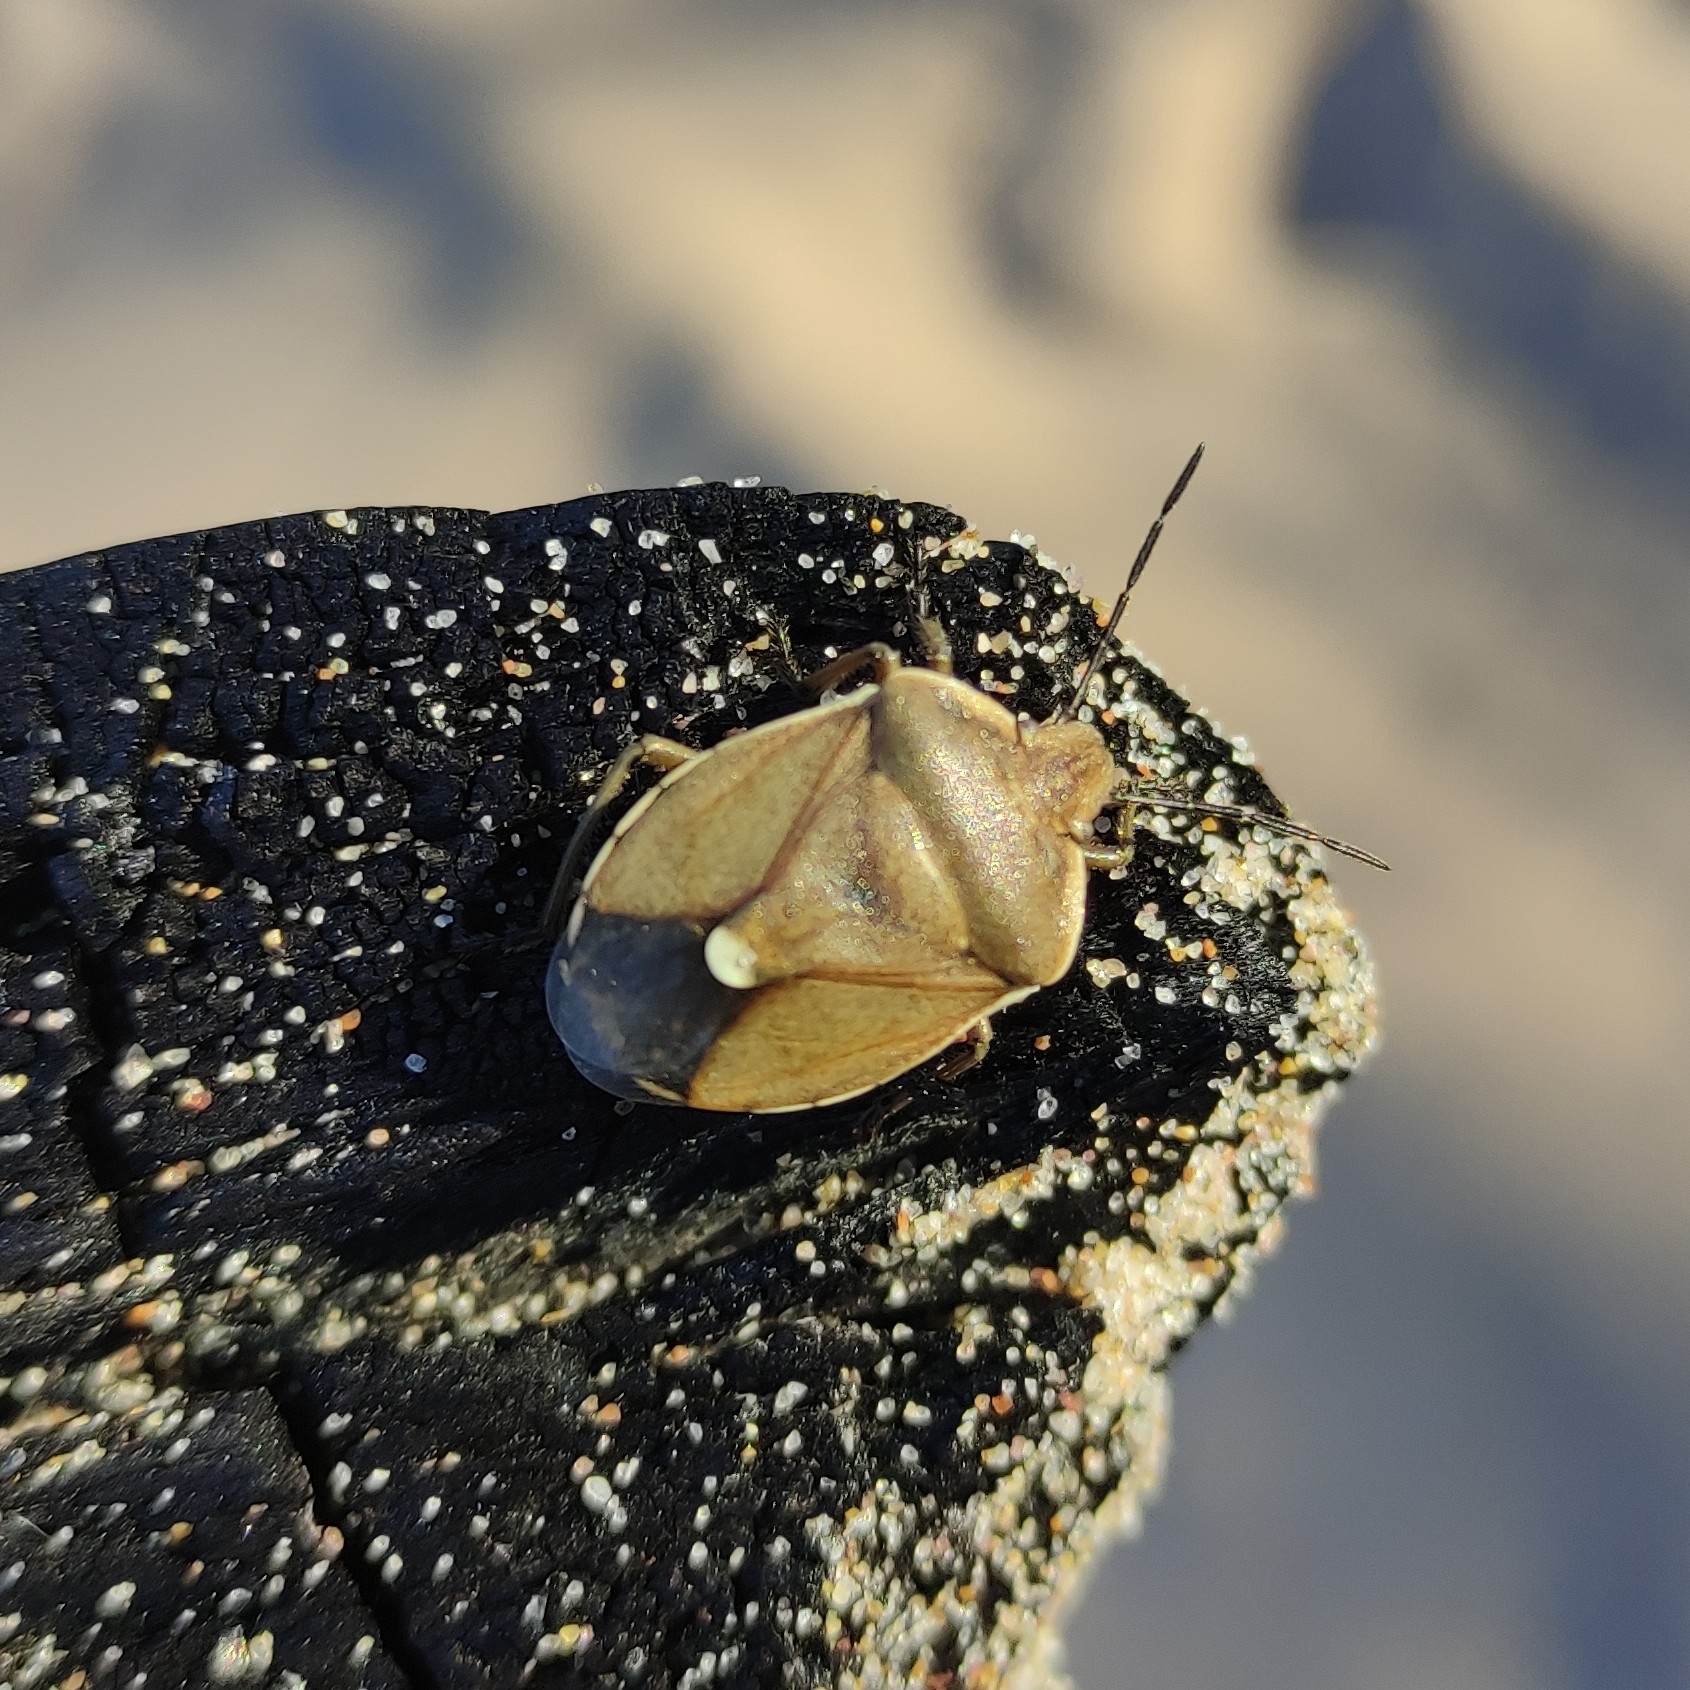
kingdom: Animalia
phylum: Arthropoda
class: Insecta
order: Hemiptera
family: Pentatomidae
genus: Chlorochroa
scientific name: Chlorochroa pinicola
